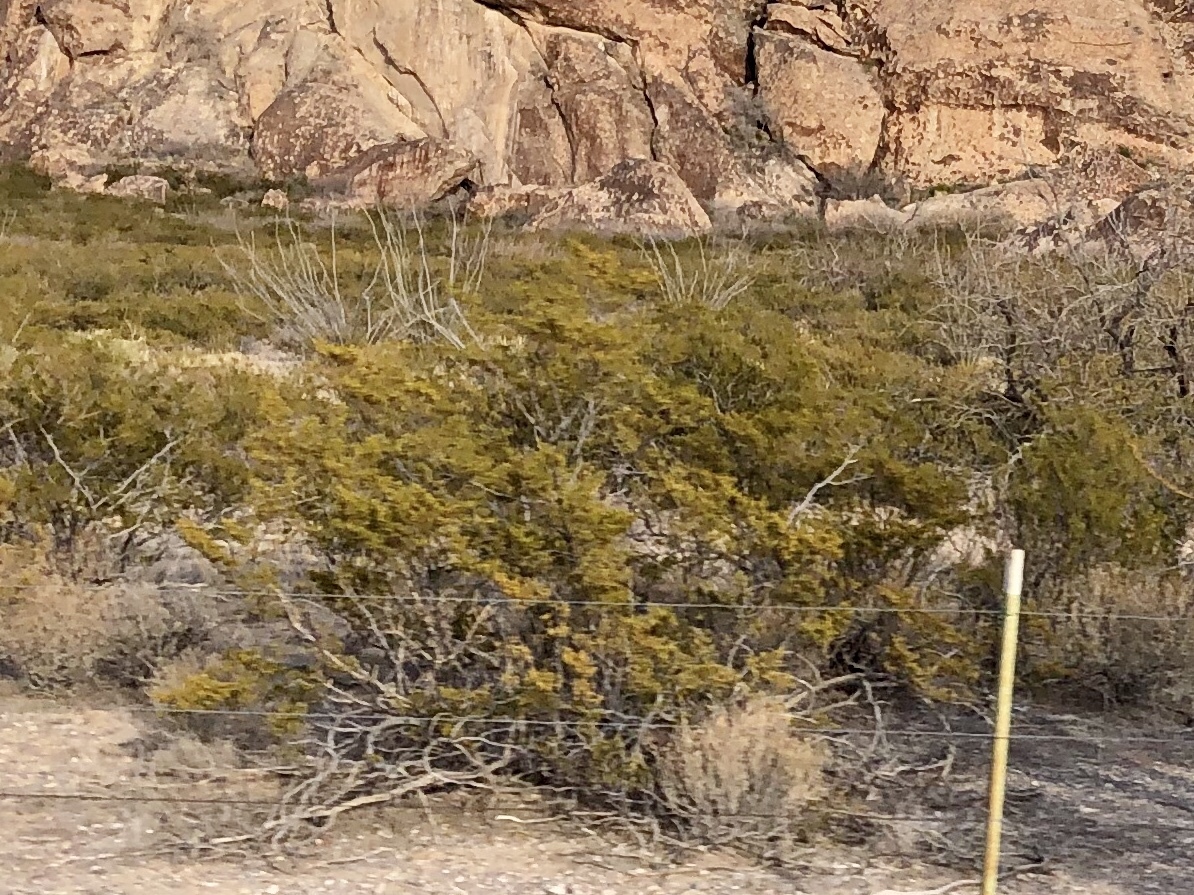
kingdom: Plantae
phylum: Tracheophyta
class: Magnoliopsida
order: Zygophyllales
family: Zygophyllaceae
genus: Larrea
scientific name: Larrea tridentata
